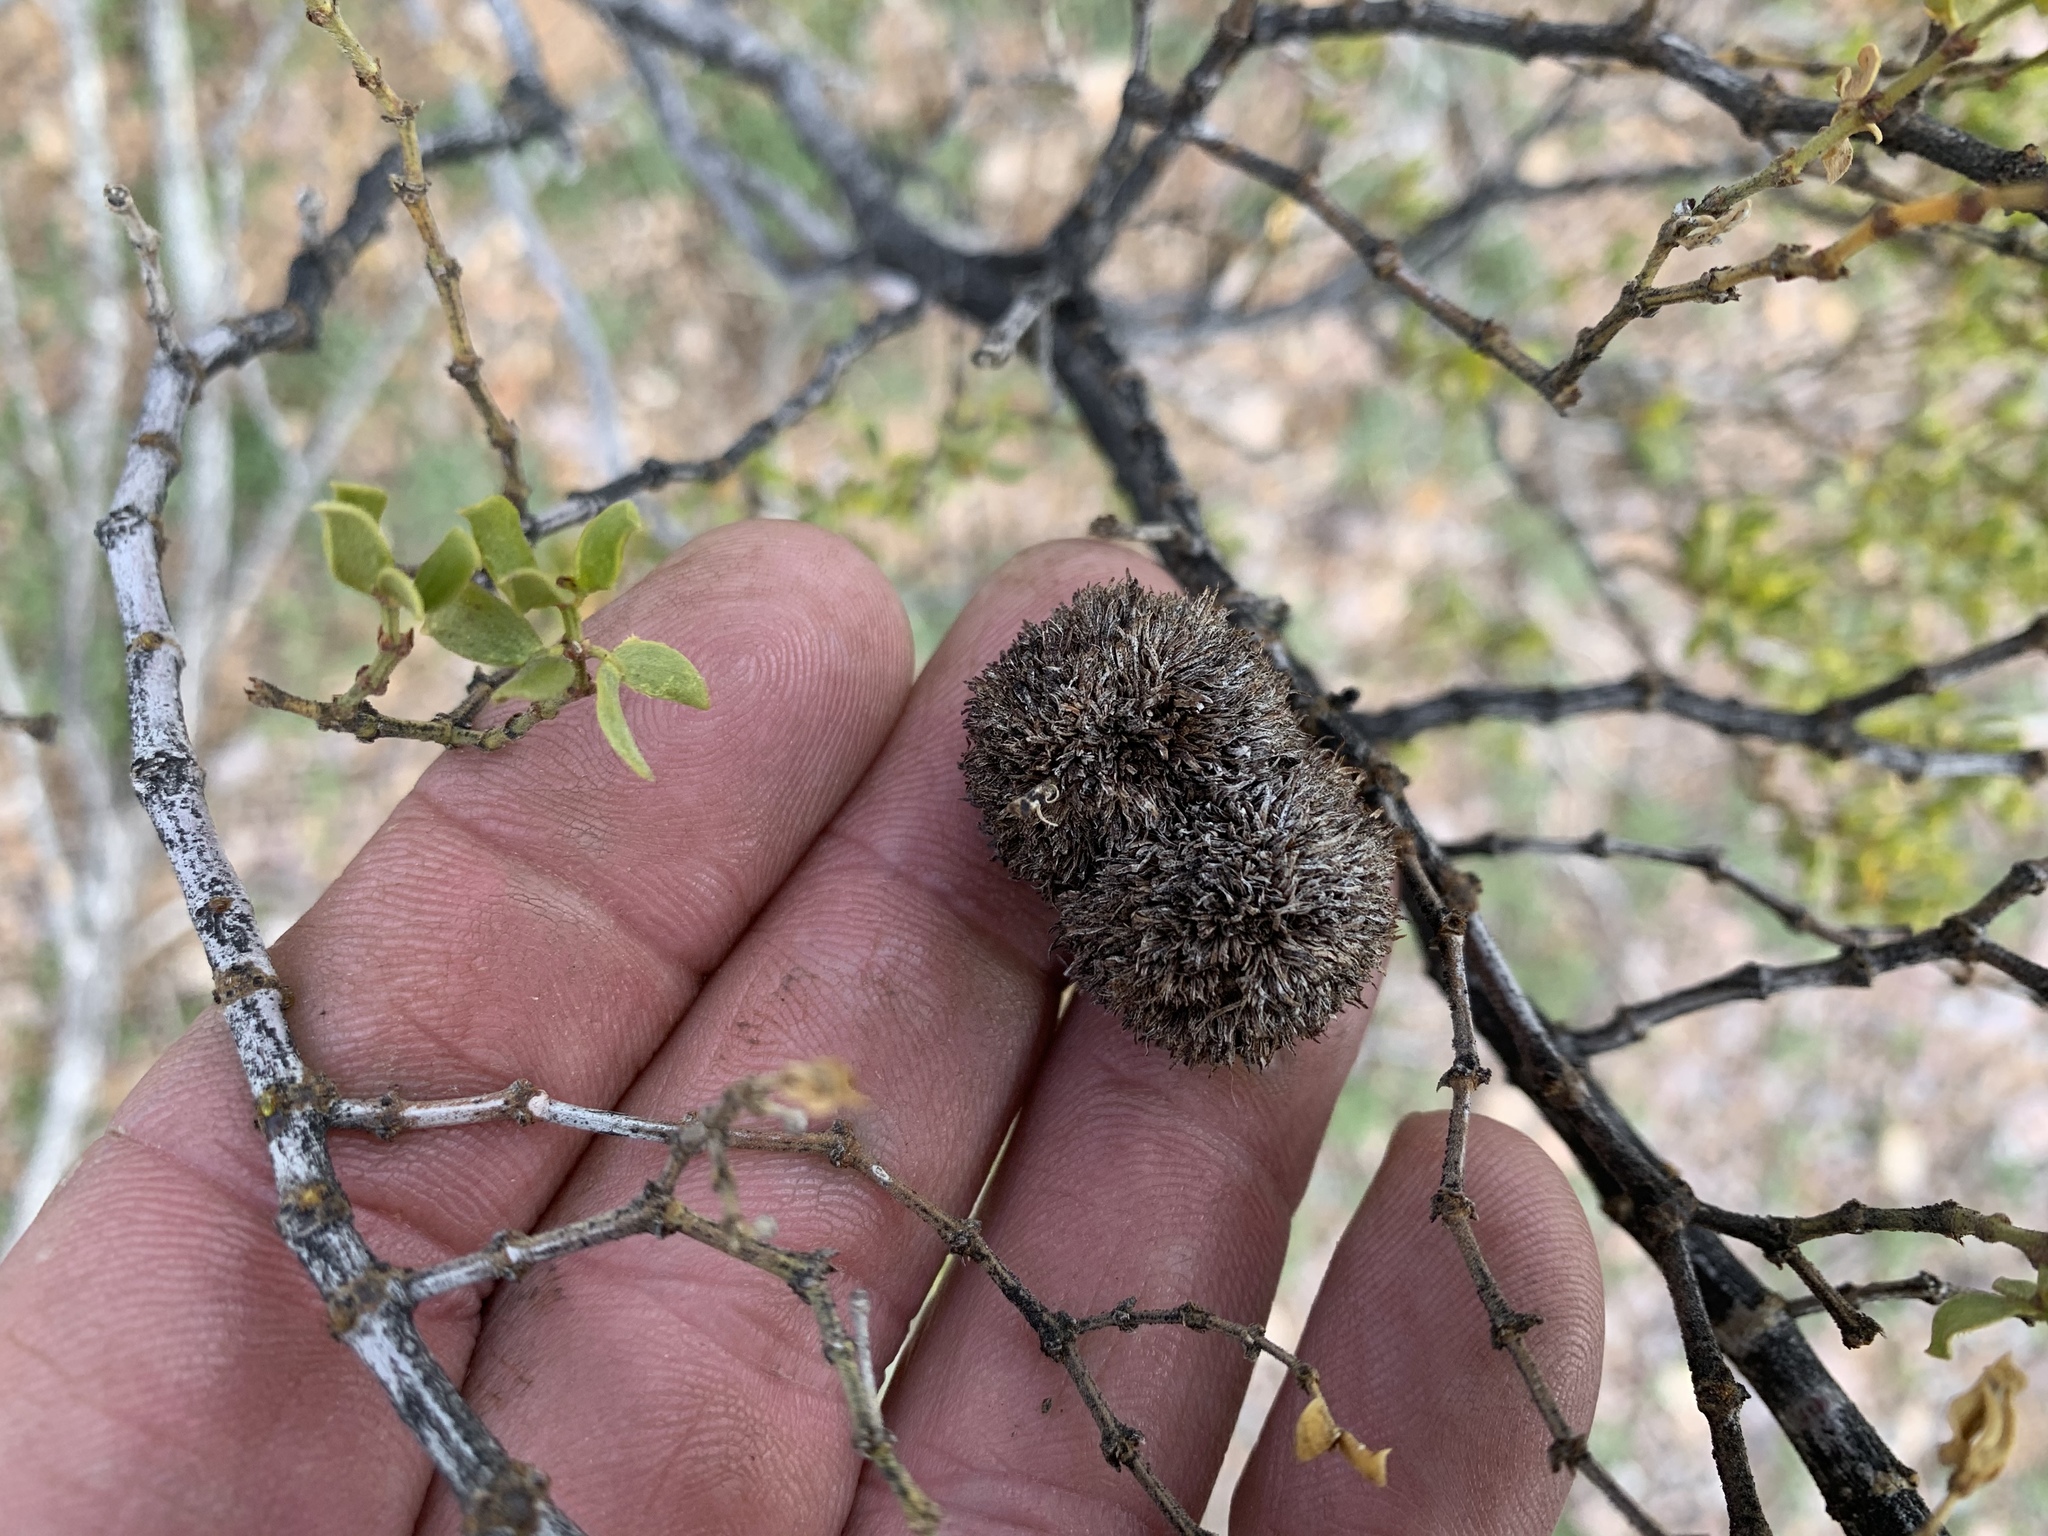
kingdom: Animalia
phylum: Arthropoda
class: Insecta
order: Diptera
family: Cecidomyiidae
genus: Asphondylia
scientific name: Asphondylia auripila
